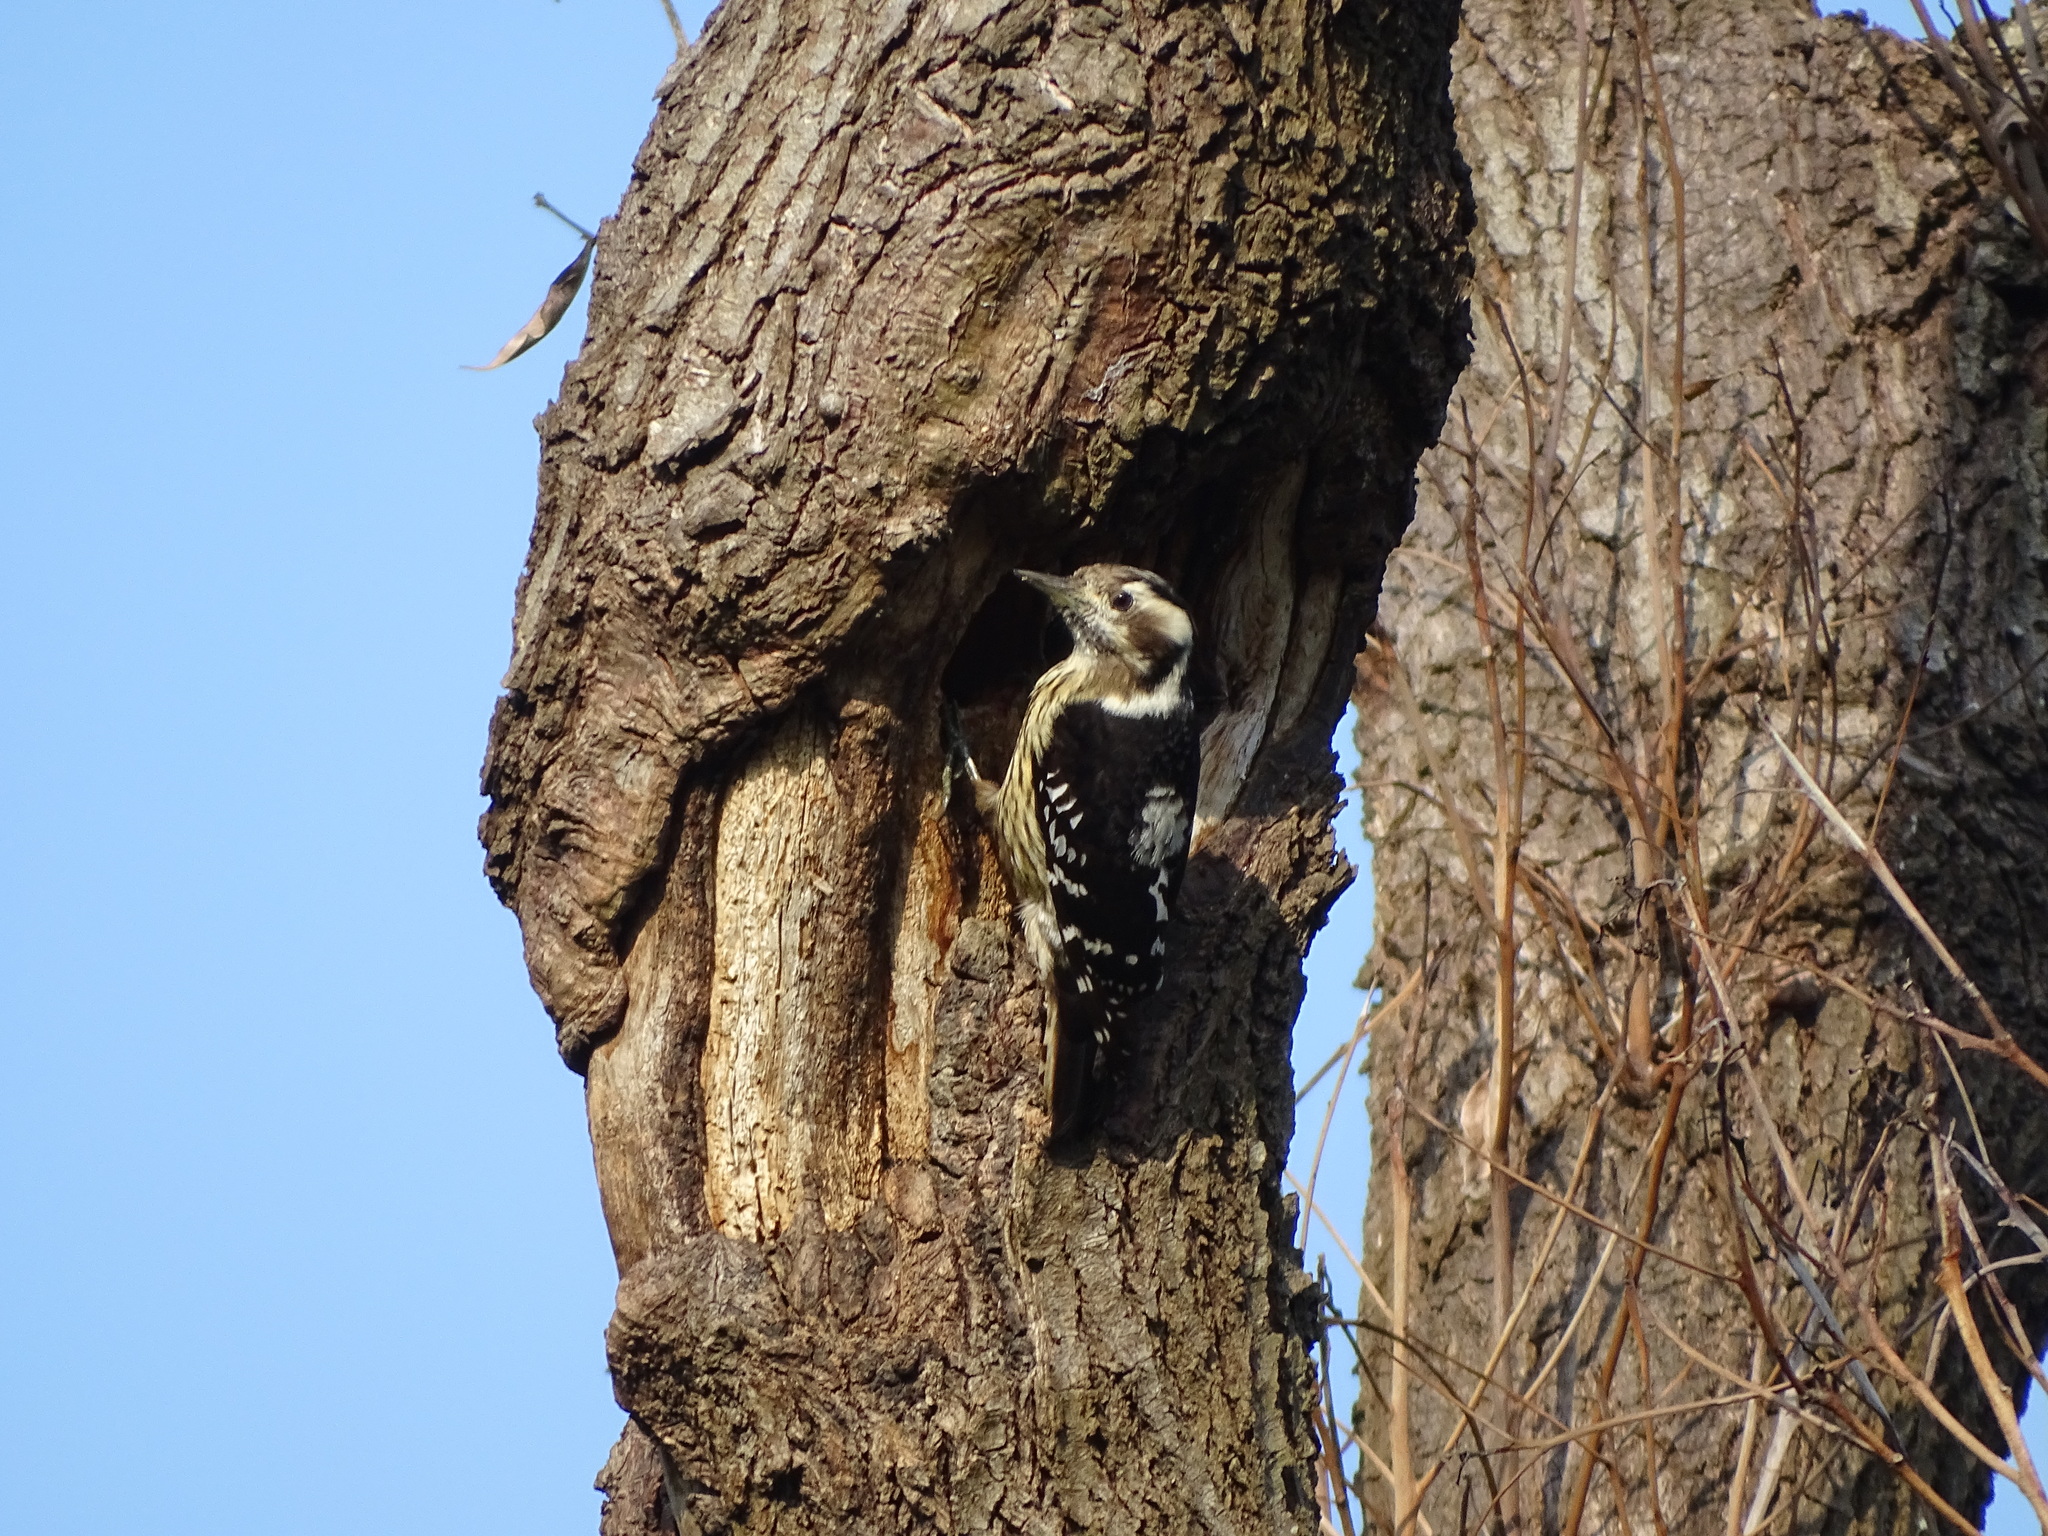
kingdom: Animalia
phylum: Chordata
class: Aves
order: Piciformes
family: Picidae
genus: Yungipicus
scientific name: Yungipicus canicapillus
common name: Grey-capped pygmy woodpecker
